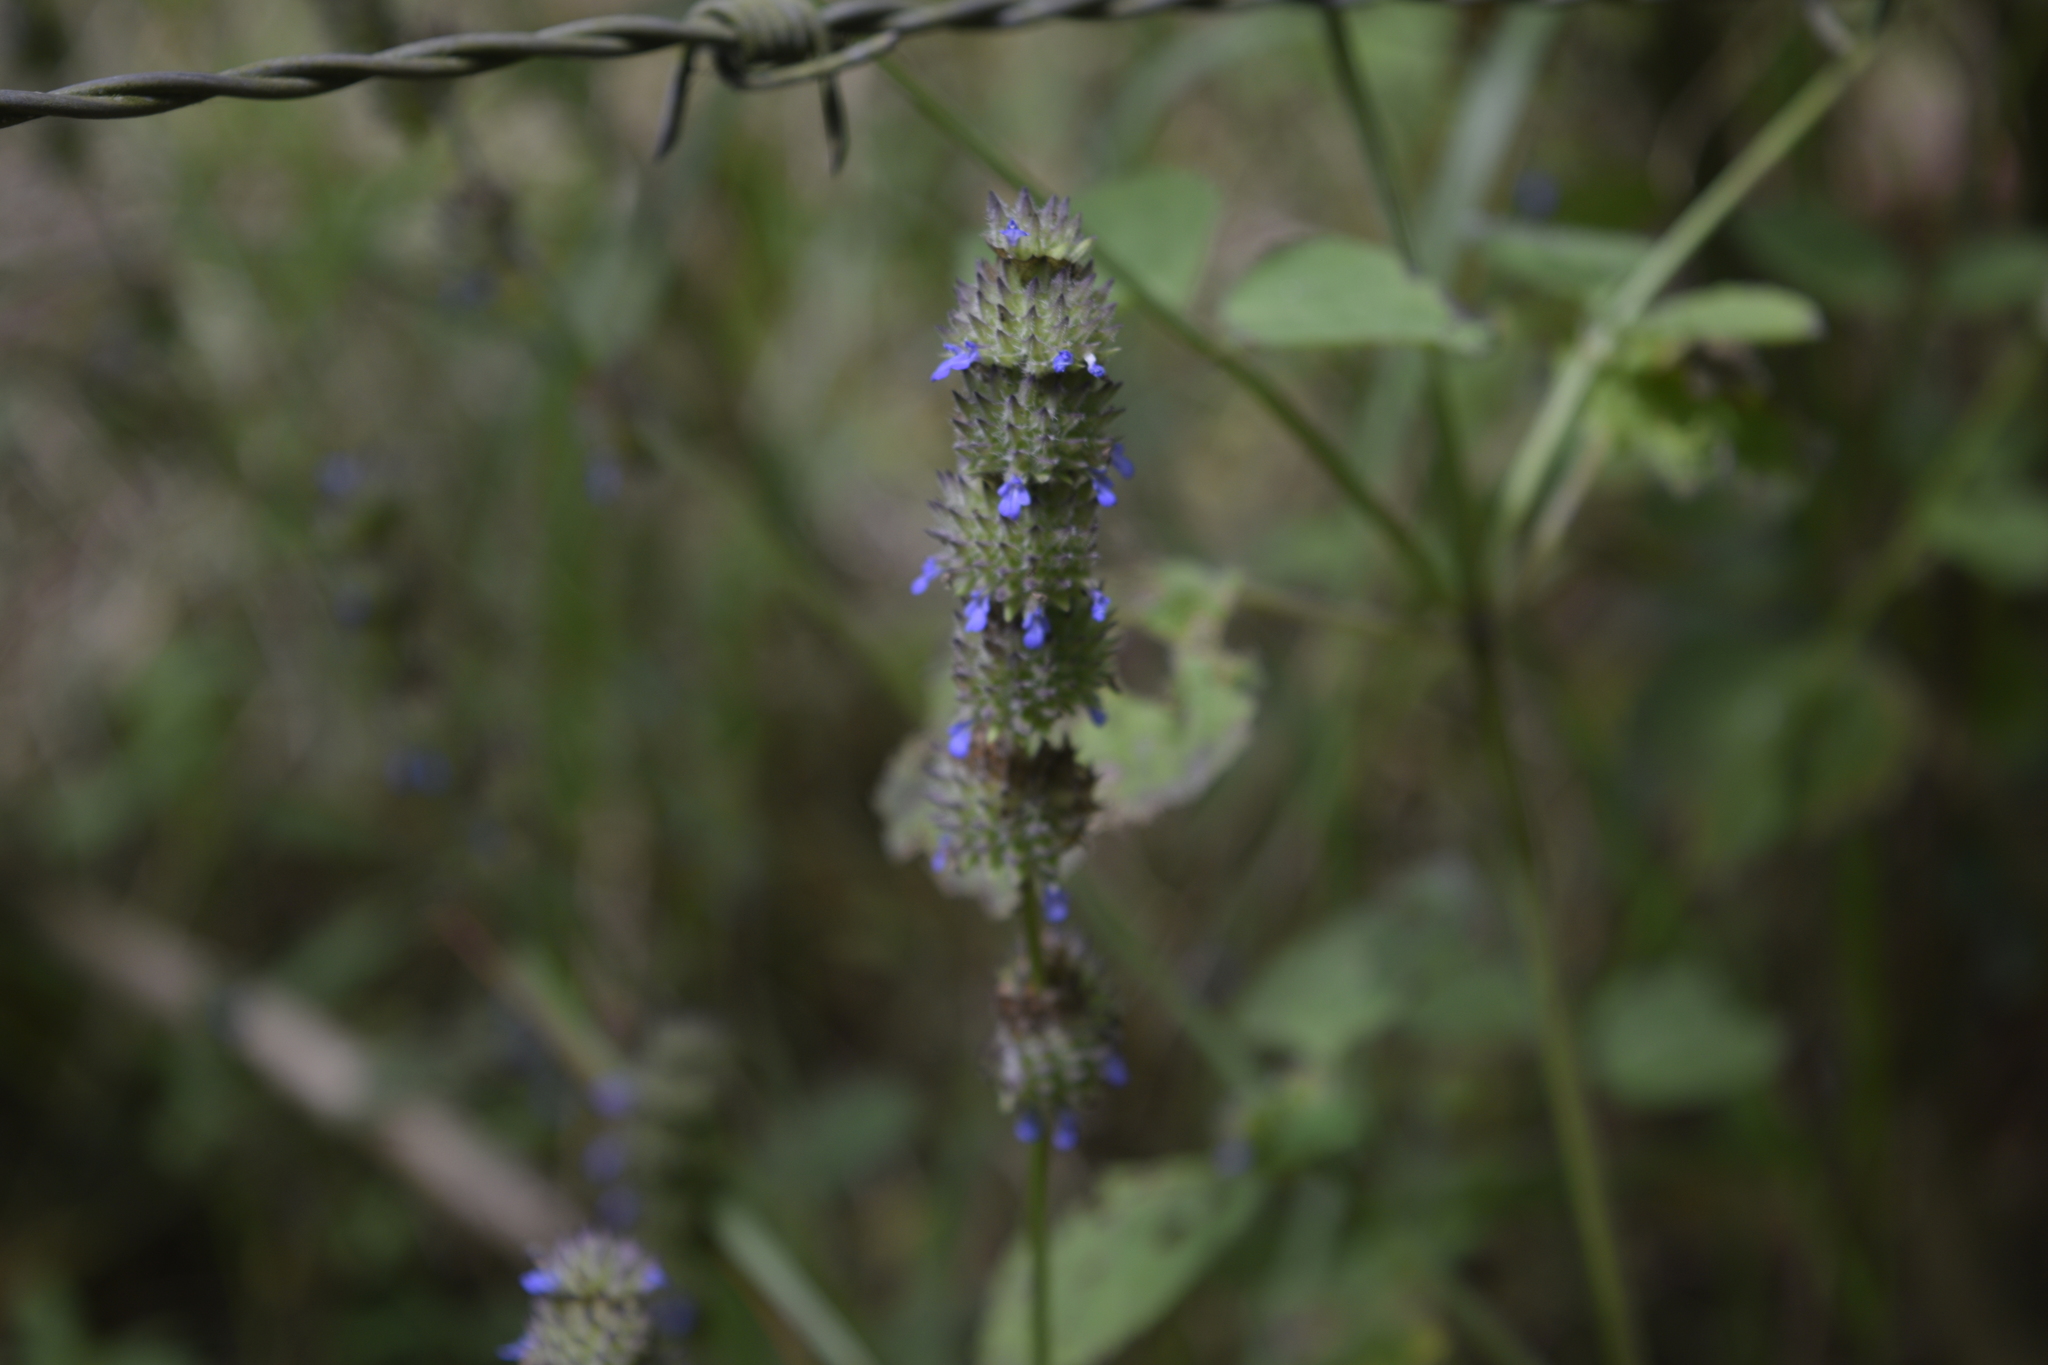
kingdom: Plantae
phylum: Tracheophyta
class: Magnoliopsida
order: Lamiales
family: Lamiaceae
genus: Salvia
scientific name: Salvia lasiocephala
